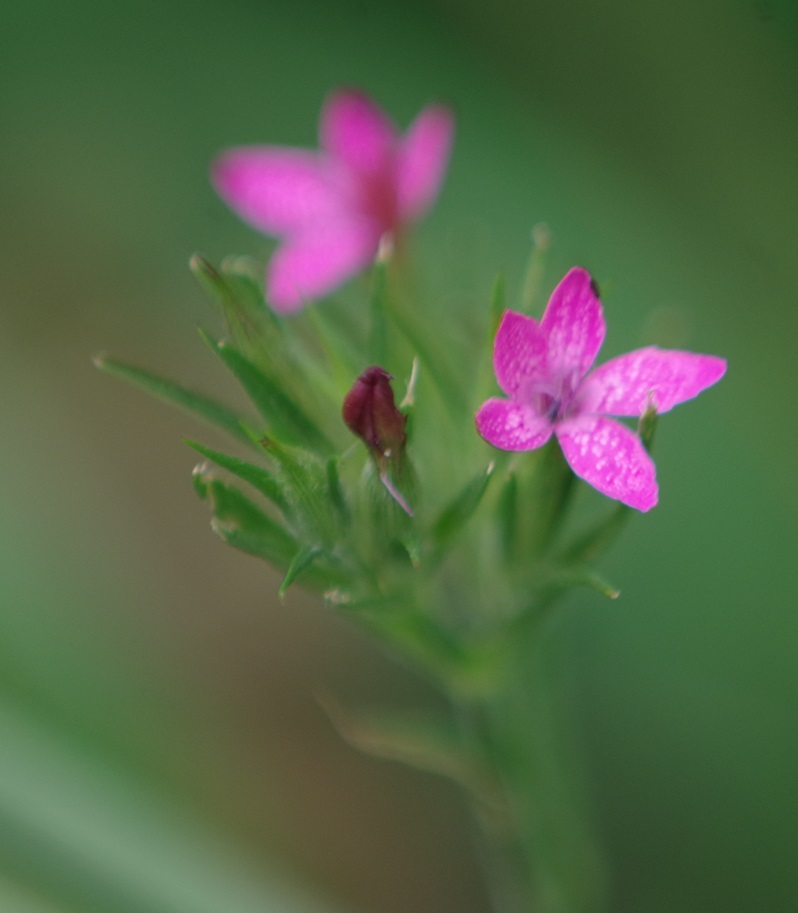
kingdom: Plantae
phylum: Tracheophyta
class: Magnoliopsida
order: Caryophyllales
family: Caryophyllaceae
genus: Dianthus
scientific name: Dianthus armeria
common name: Deptford pink
